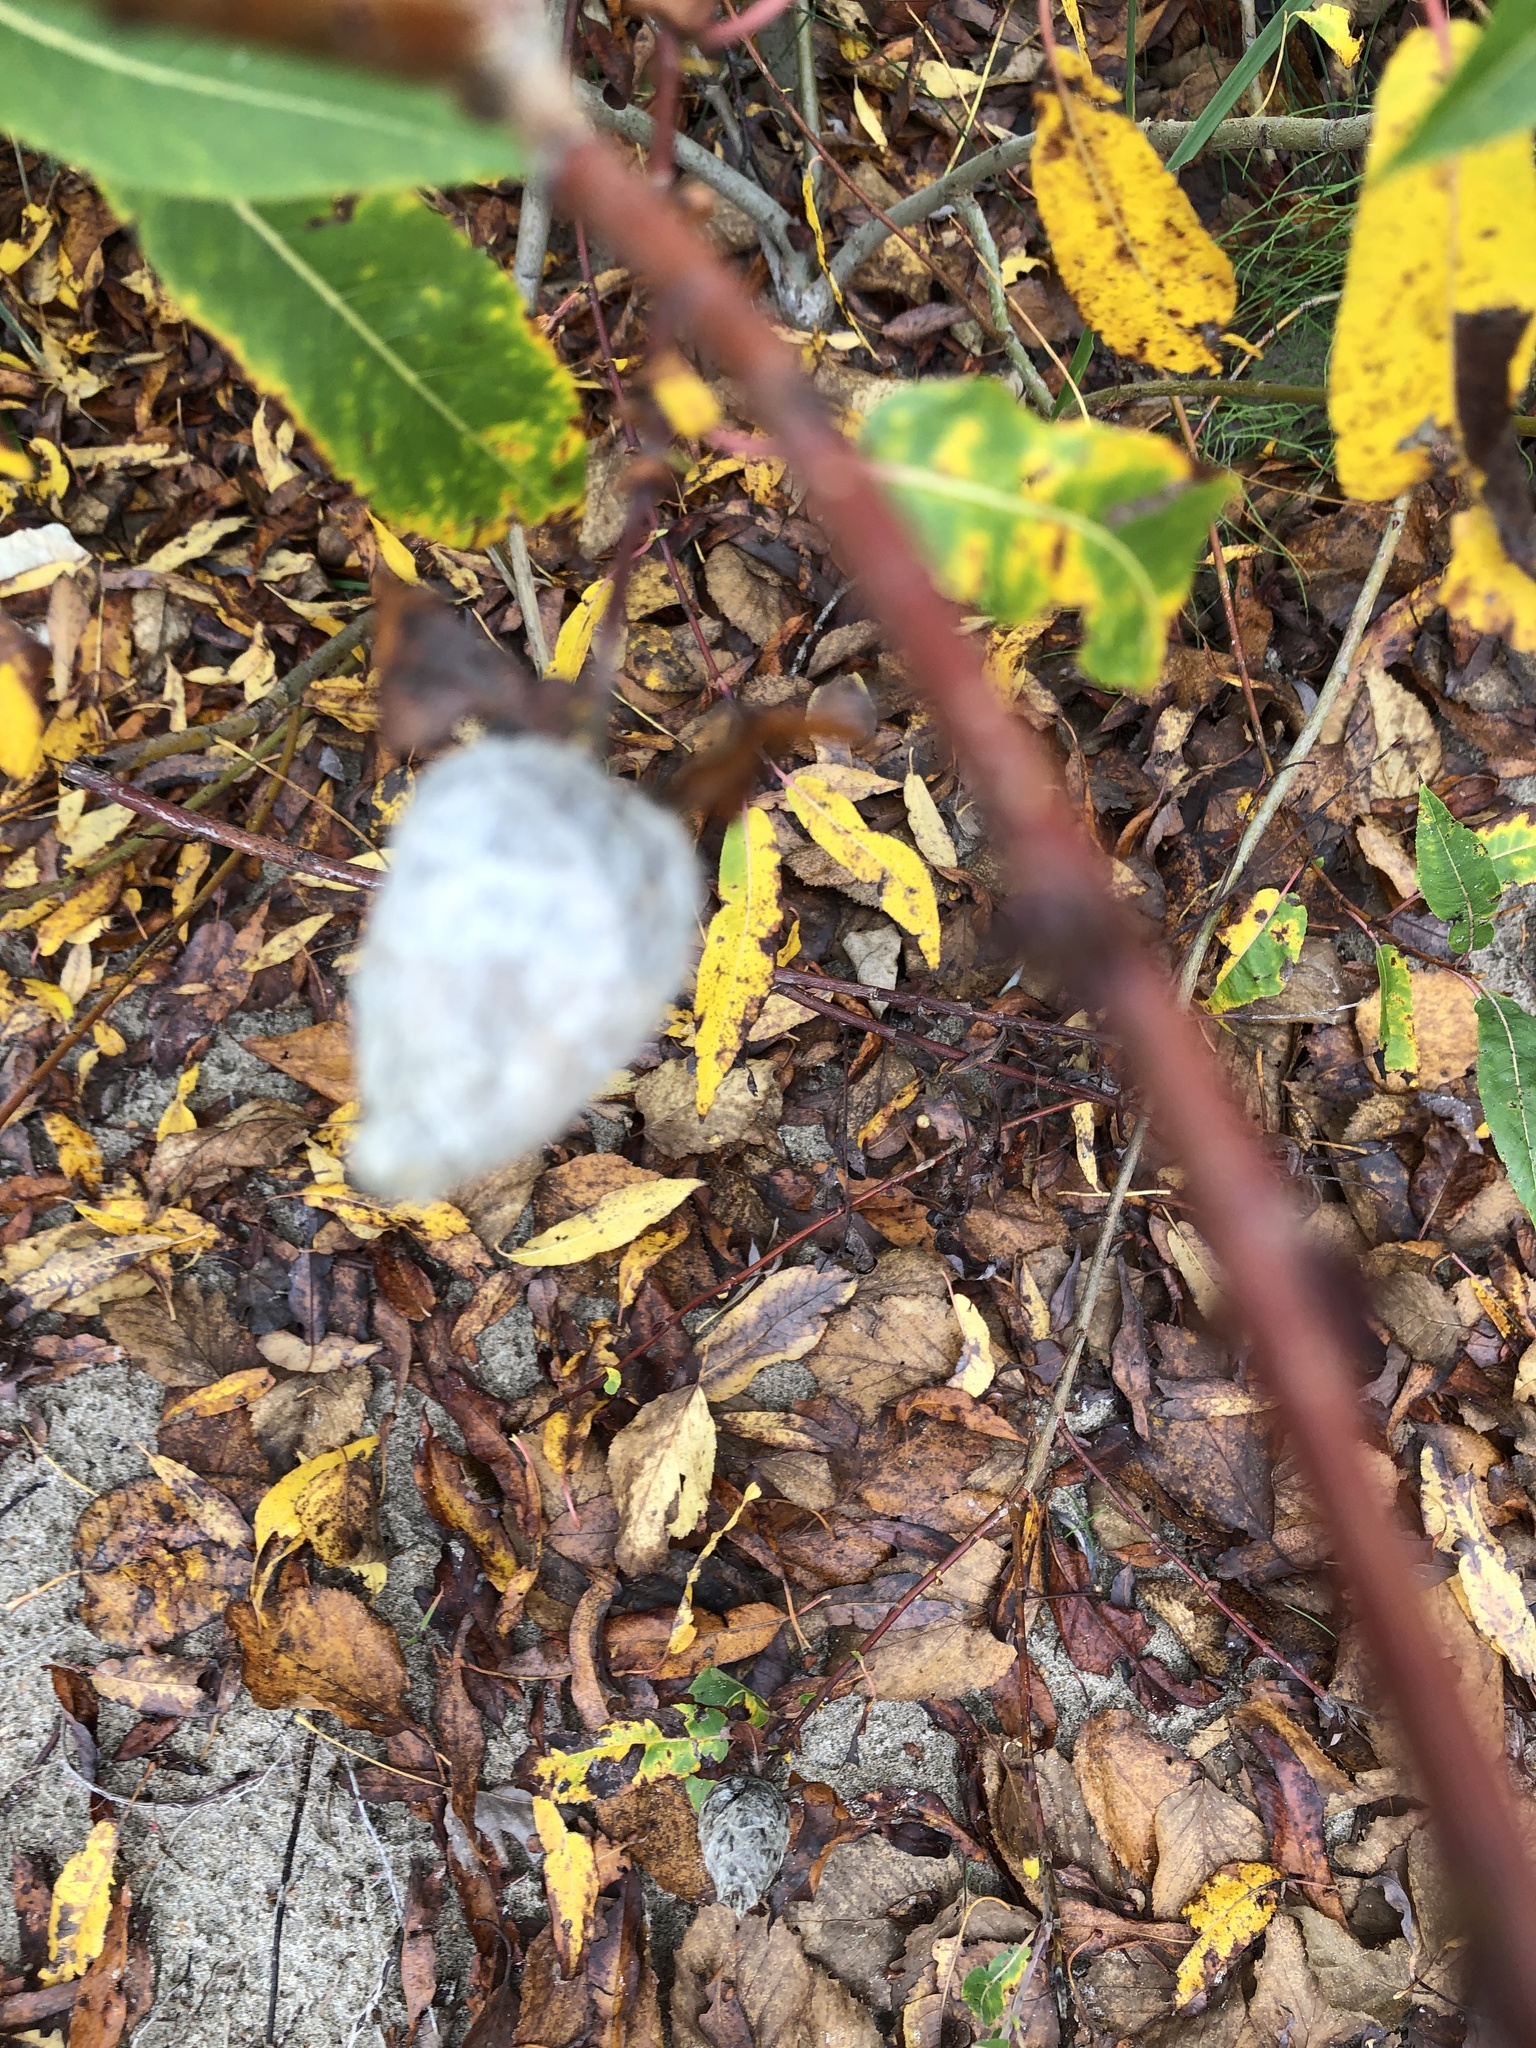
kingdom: Animalia
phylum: Arthropoda
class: Insecta
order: Diptera
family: Cecidomyiidae
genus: Rabdophaga
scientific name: Rabdophaga strobiloides
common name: Willow pinecone gall midge
